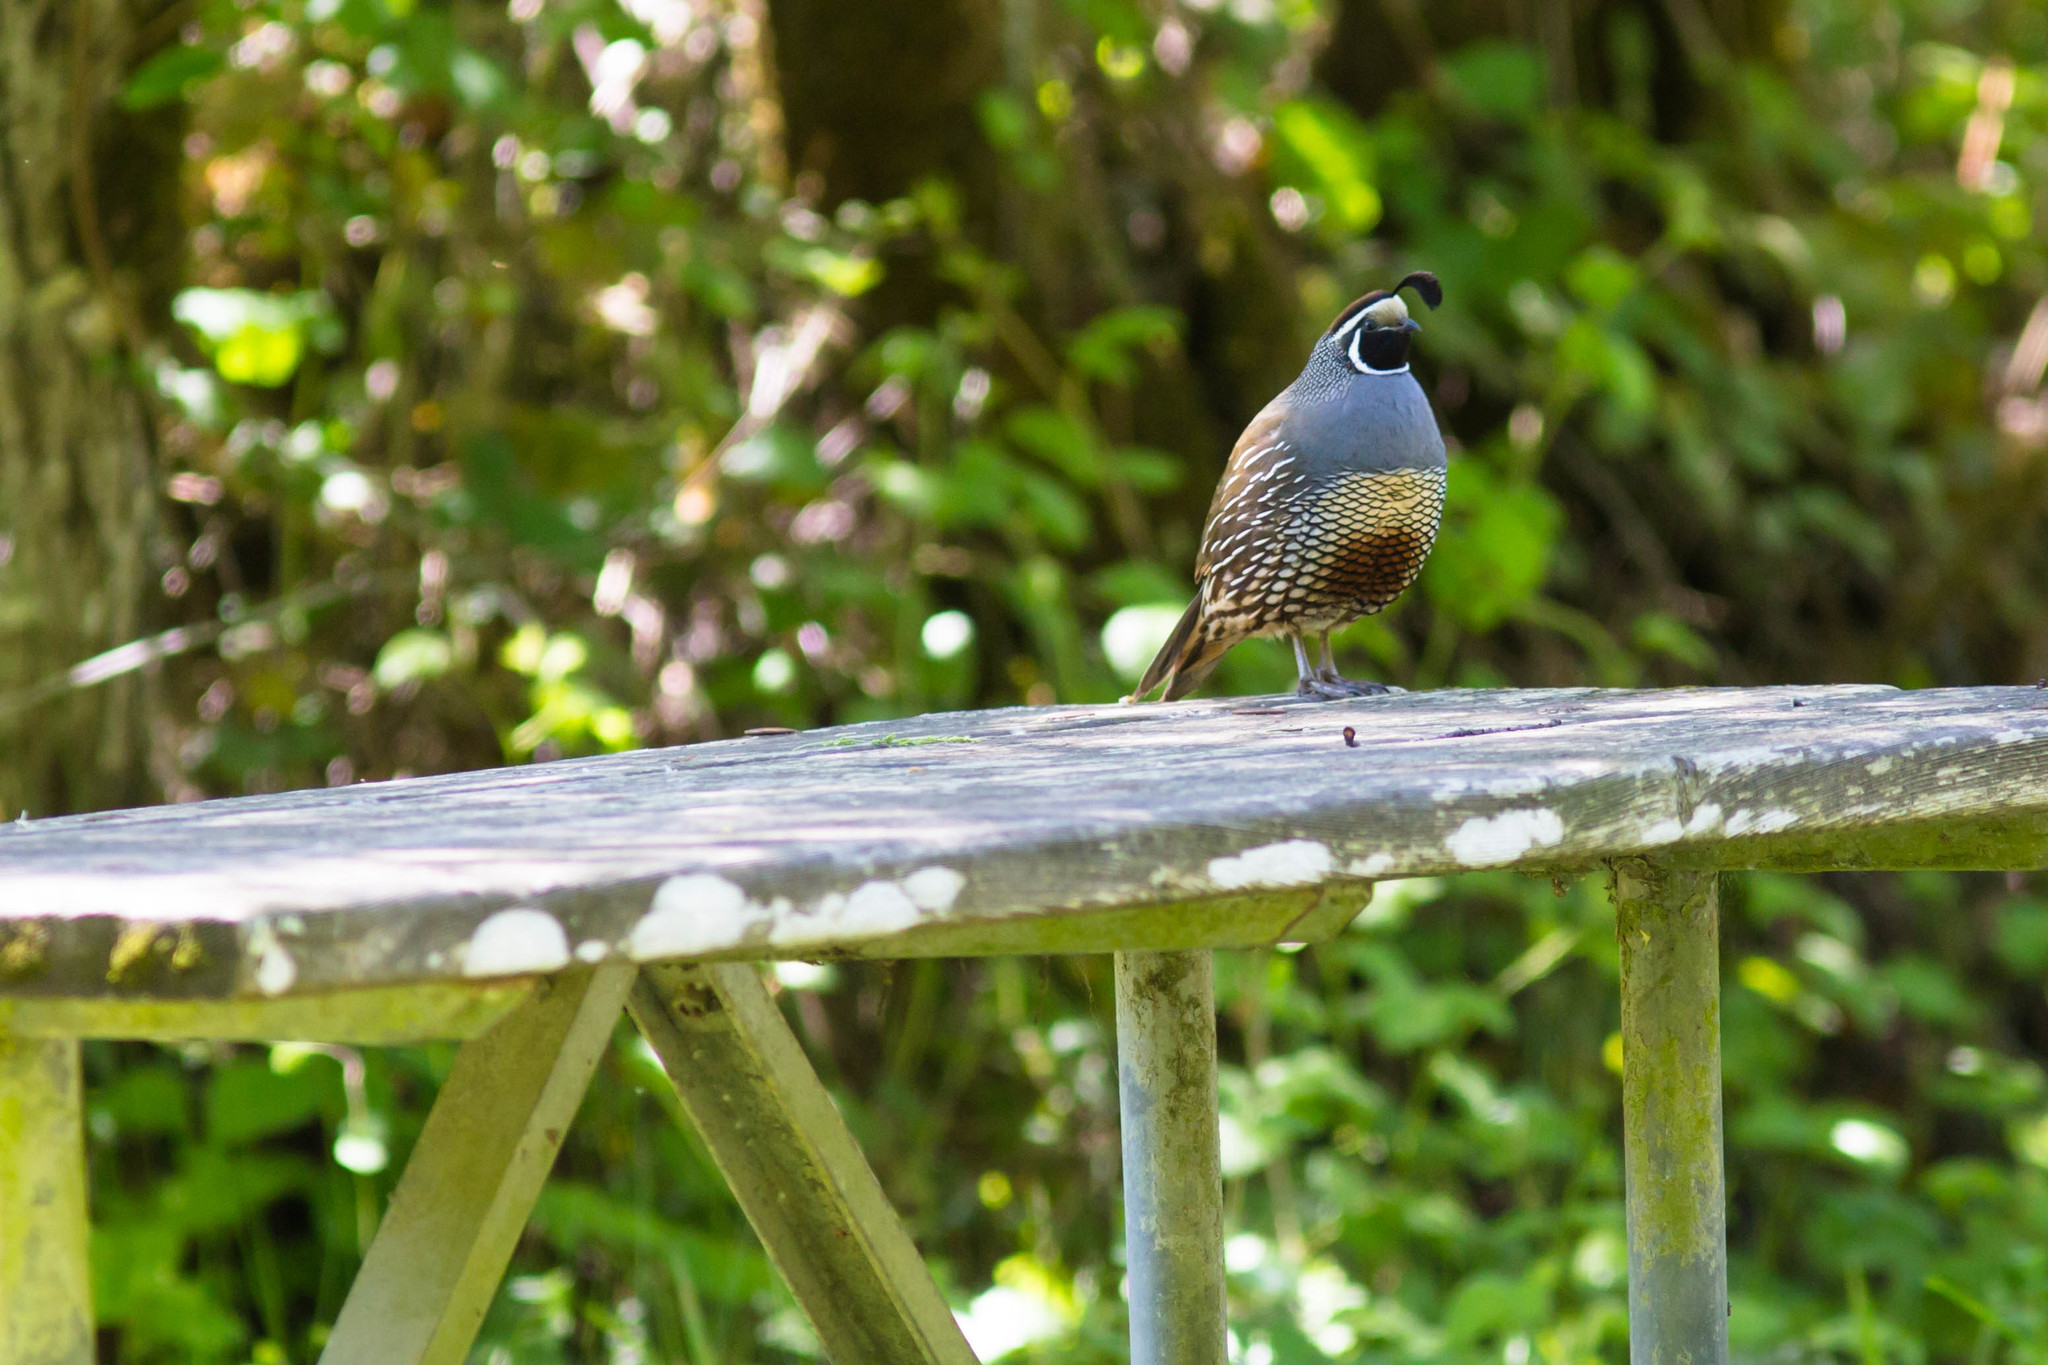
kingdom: Animalia
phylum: Chordata
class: Aves
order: Galliformes
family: Odontophoridae
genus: Callipepla
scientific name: Callipepla californica
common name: California quail
